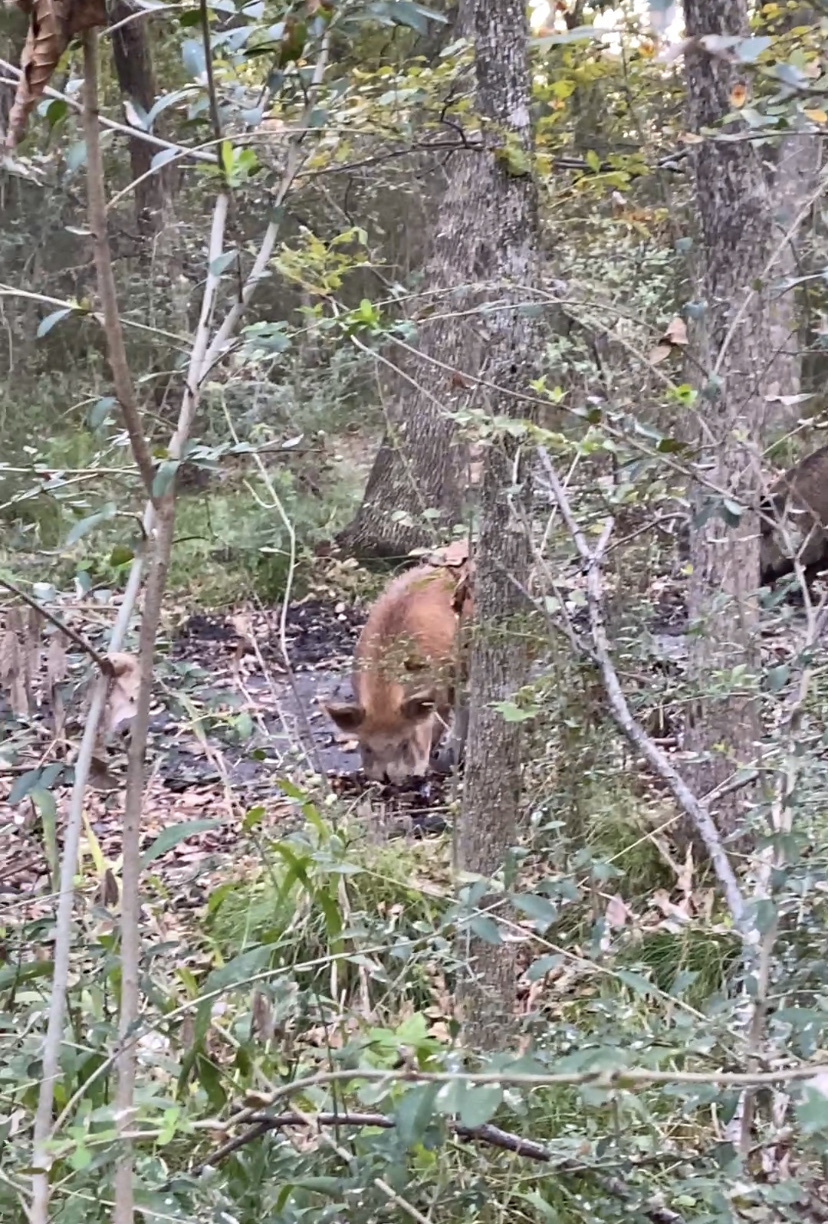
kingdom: Animalia
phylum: Chordata
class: Mammalia
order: Artiodactyla
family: Suidae
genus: Sus
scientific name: Sus scrofa
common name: Wild boar
